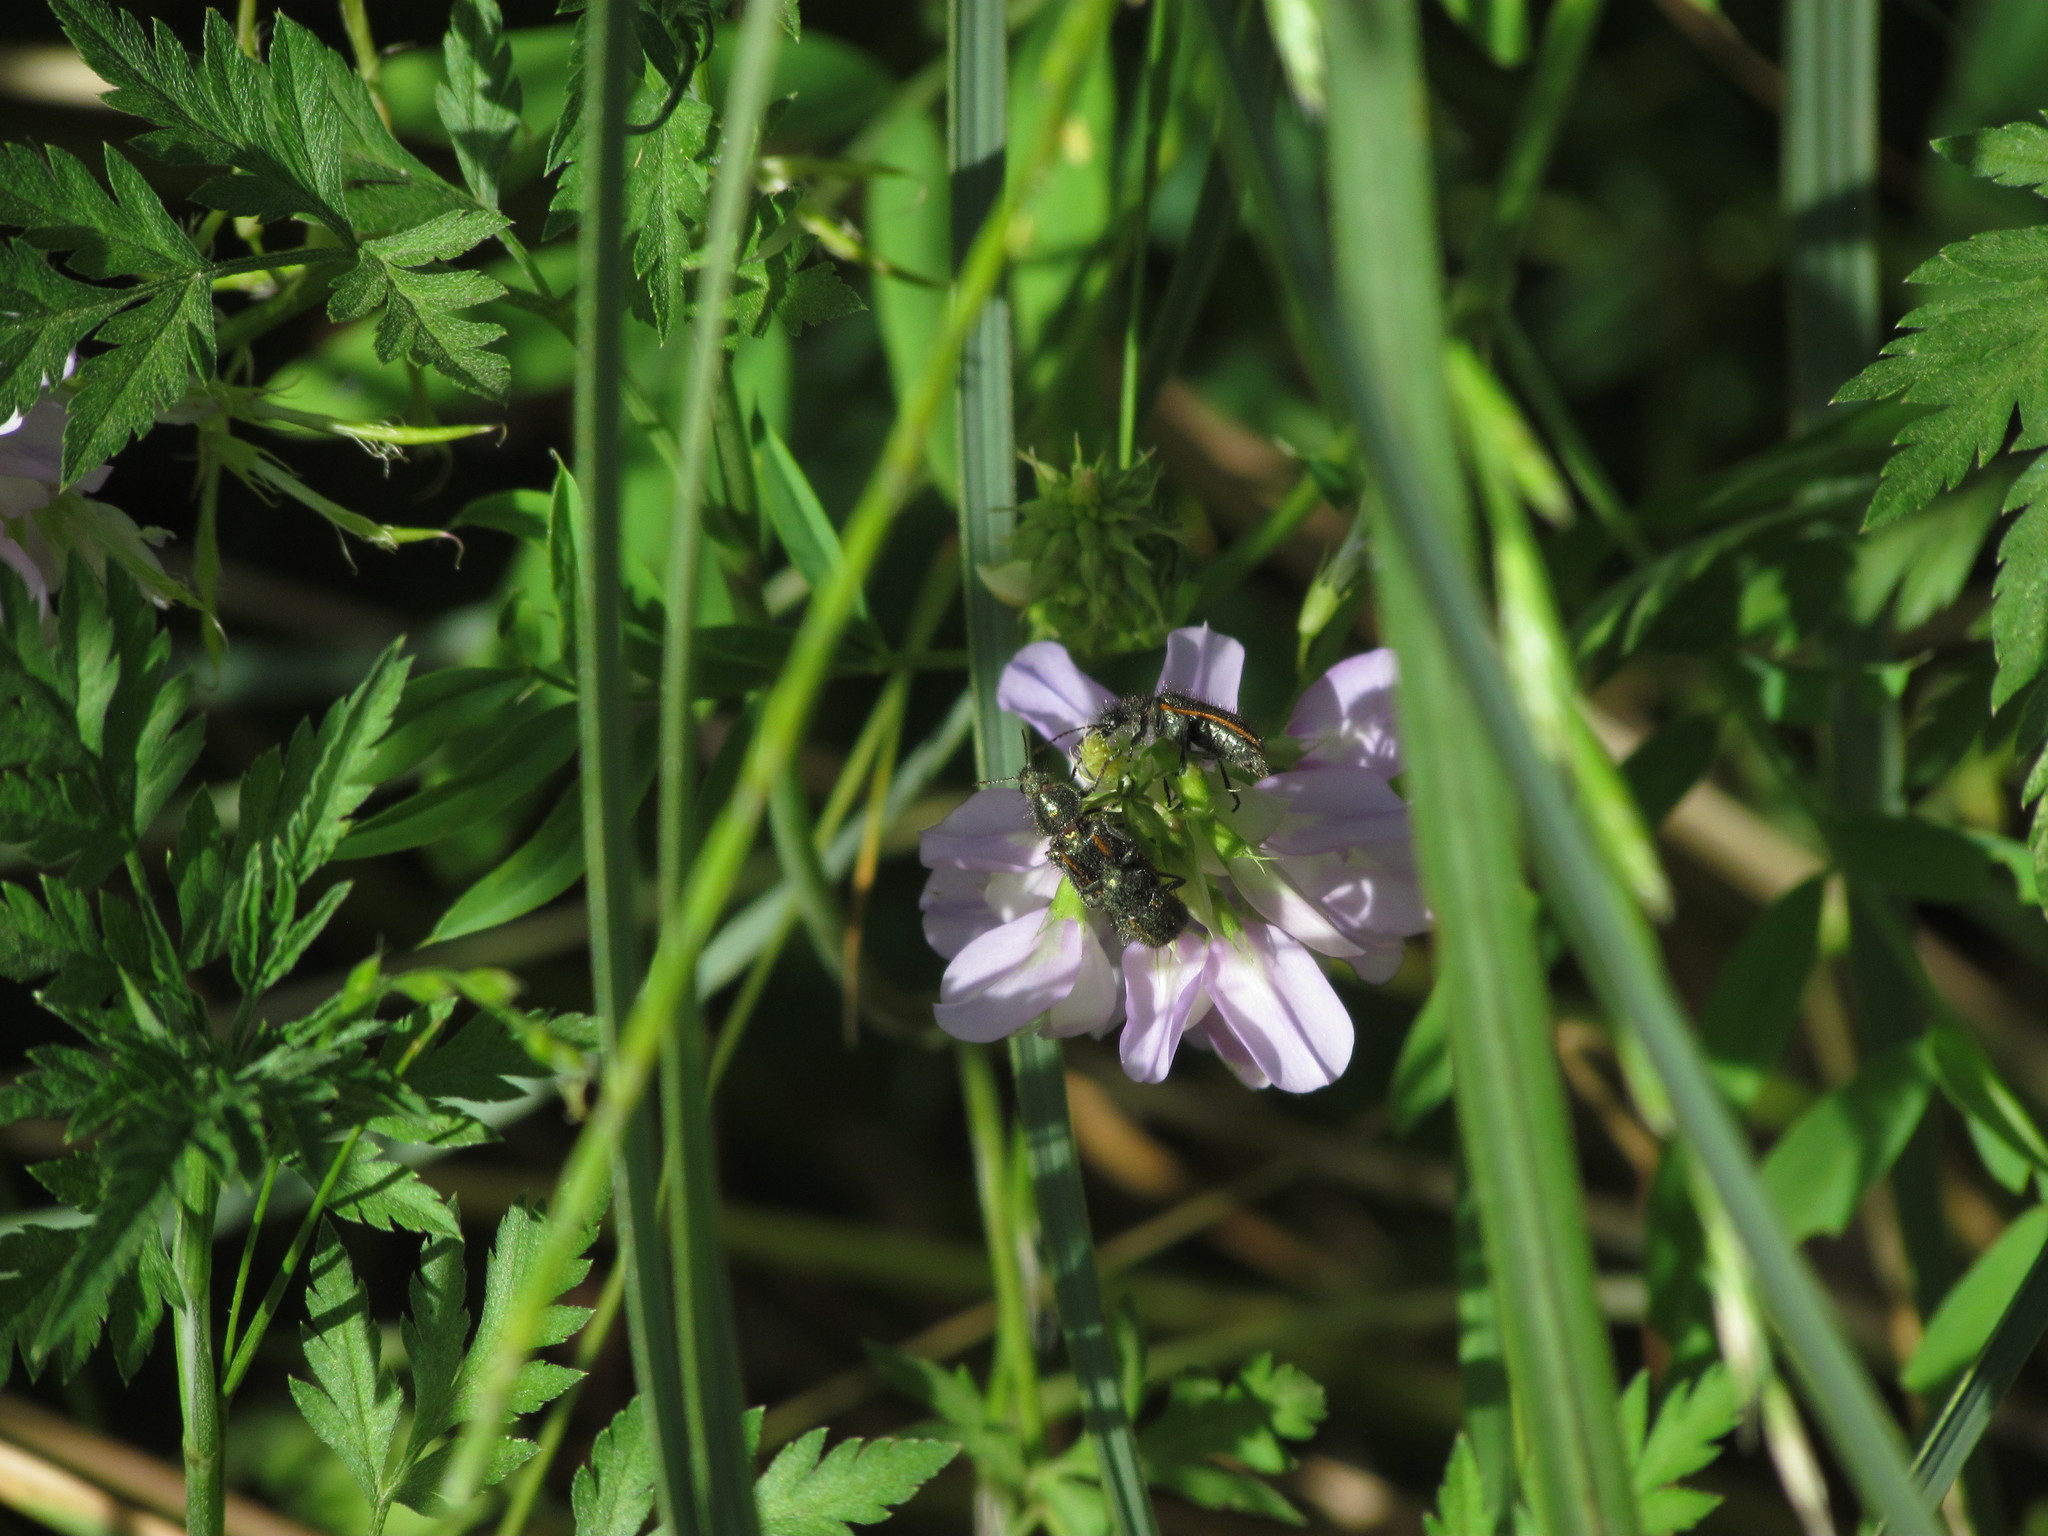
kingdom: Animalia
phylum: Arthropoda
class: Insecta
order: Coleoptera
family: Melyridae
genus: Astylus
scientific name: Astylus
